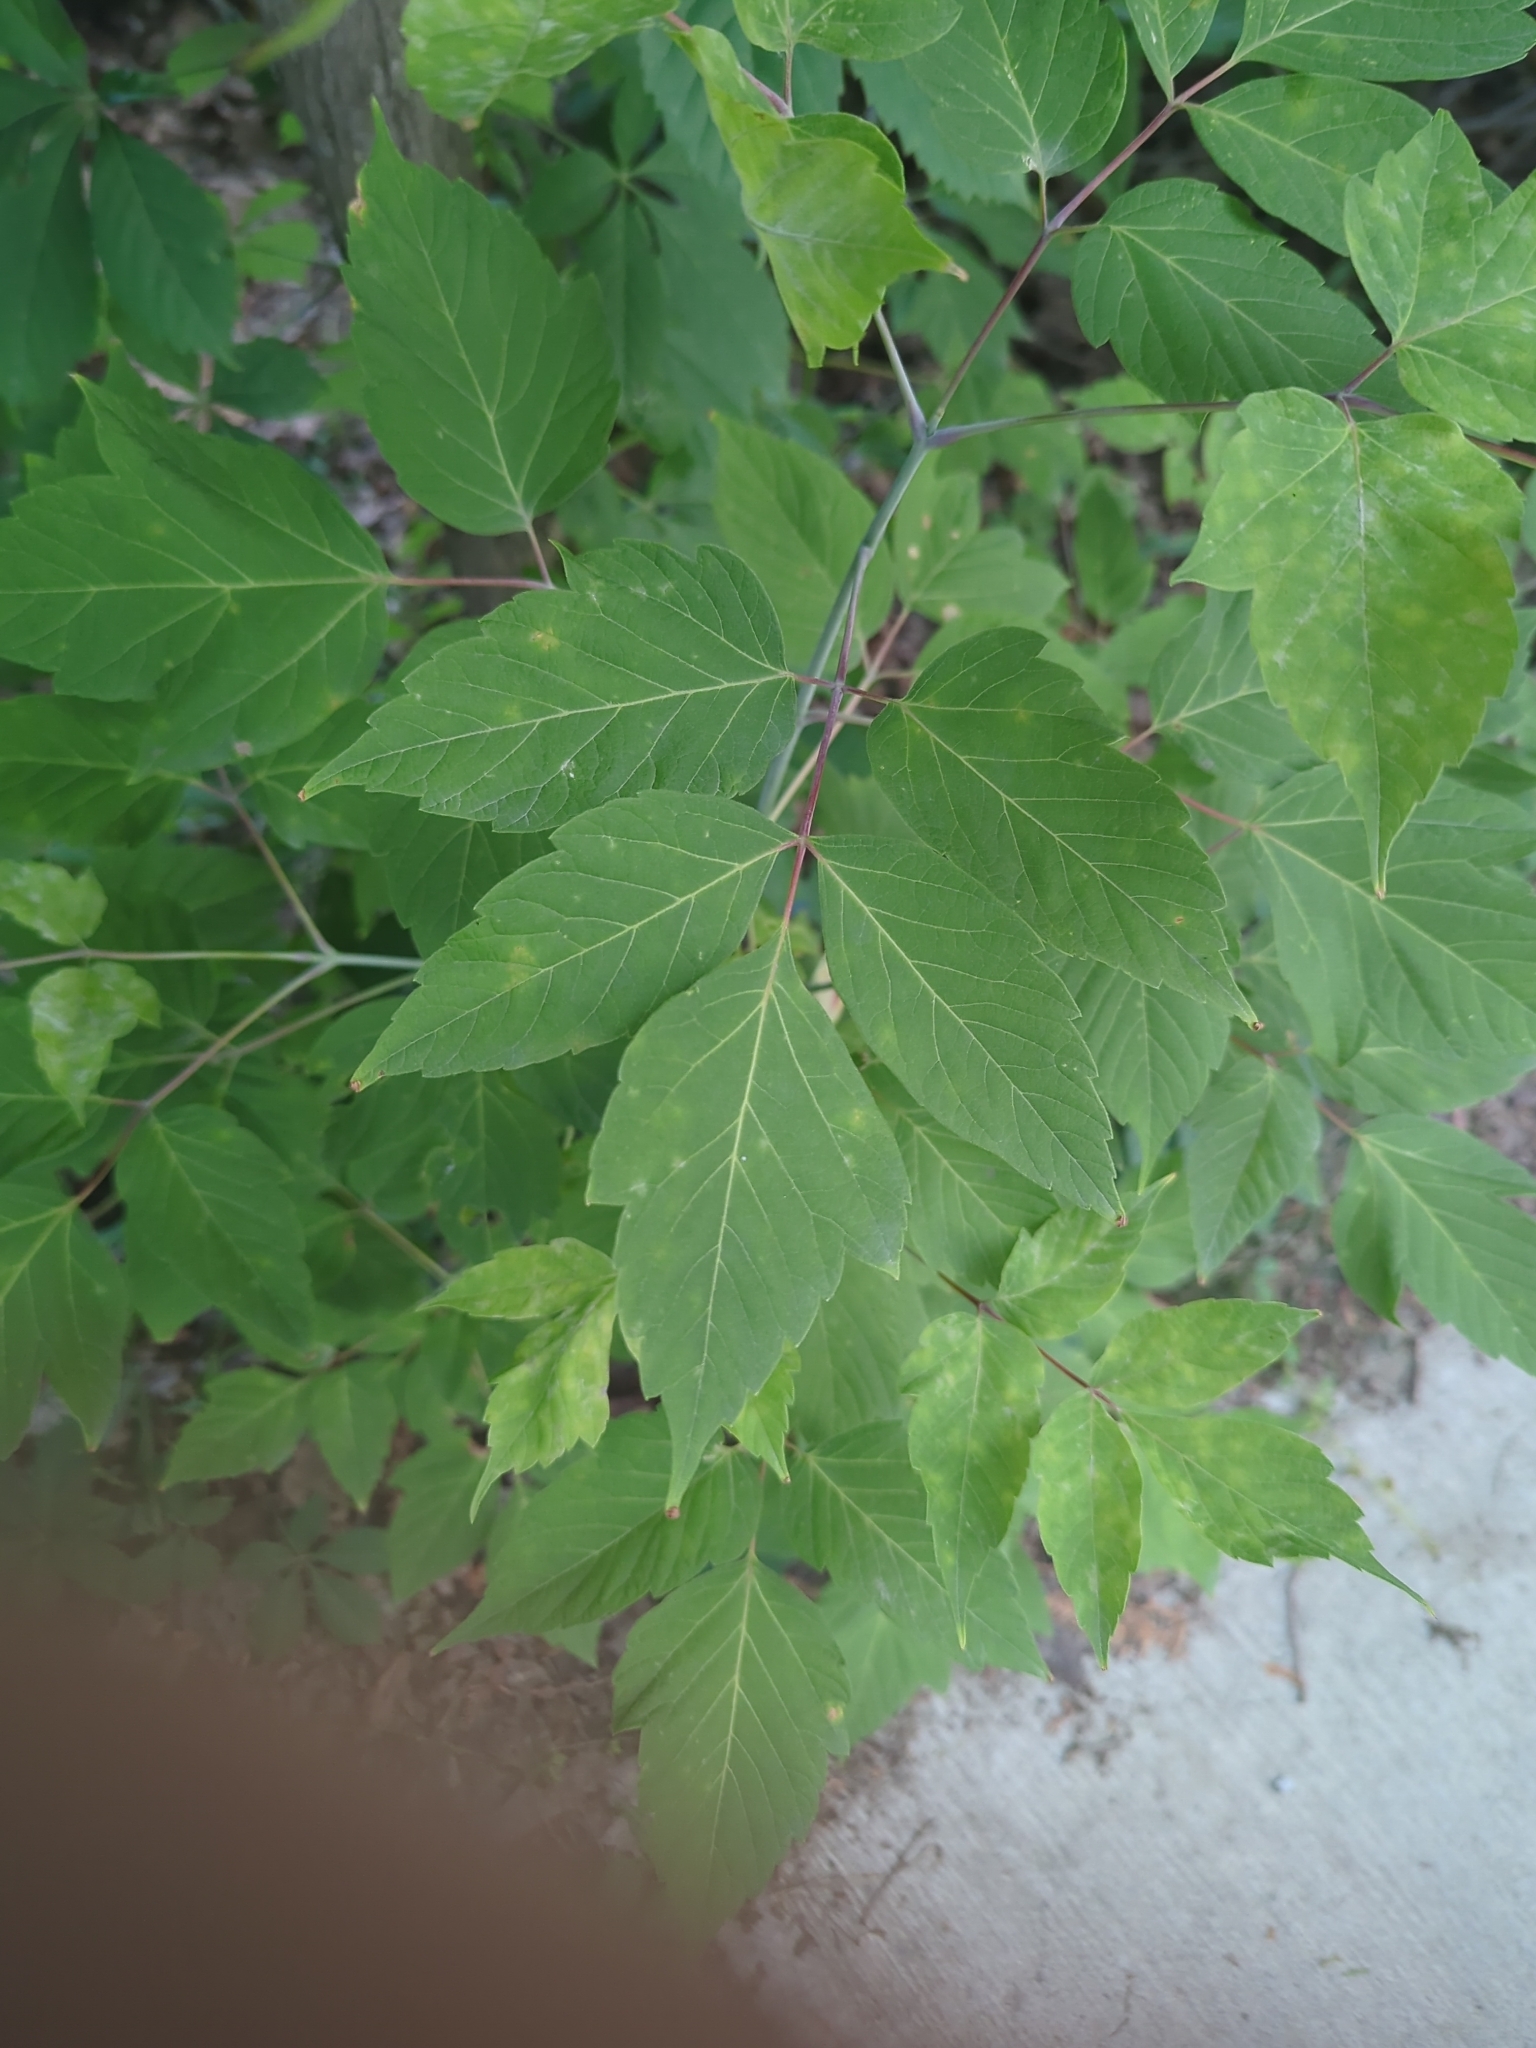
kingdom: Plantae
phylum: Tracheophyta
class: Magnoliopsida
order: Sapindales
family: Sapindaceae
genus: Acer
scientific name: Acer negundo
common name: Ashleaf maple
